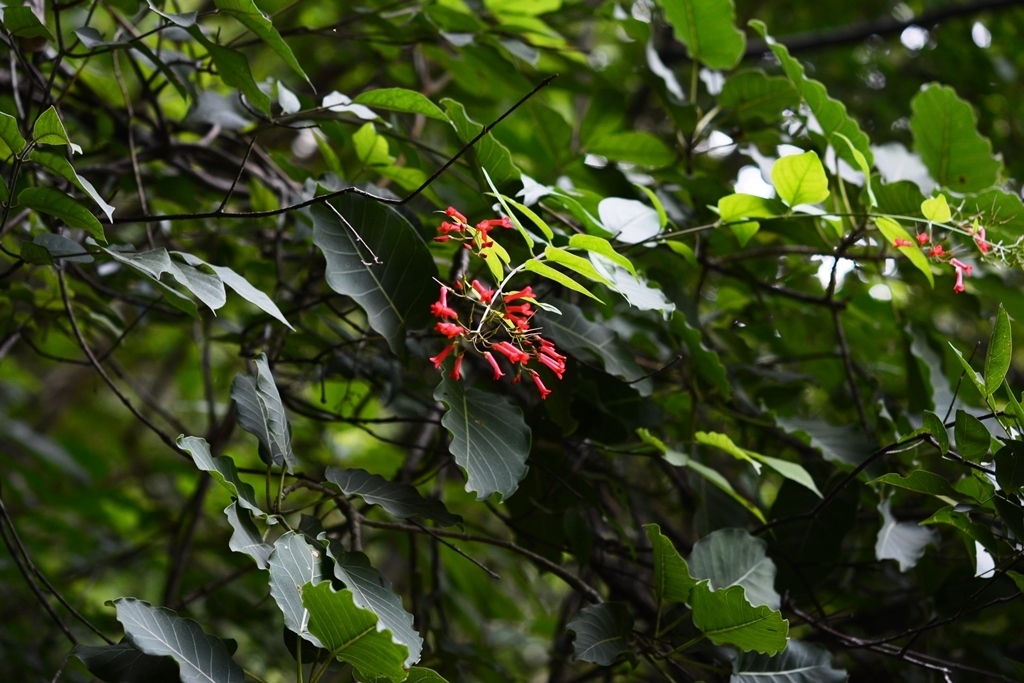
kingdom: Plantae
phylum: Tracheophyta
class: Magnoliopsida
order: Lamiales
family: Plantaginaceae
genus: Russelia
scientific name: Russelia contrerasii
